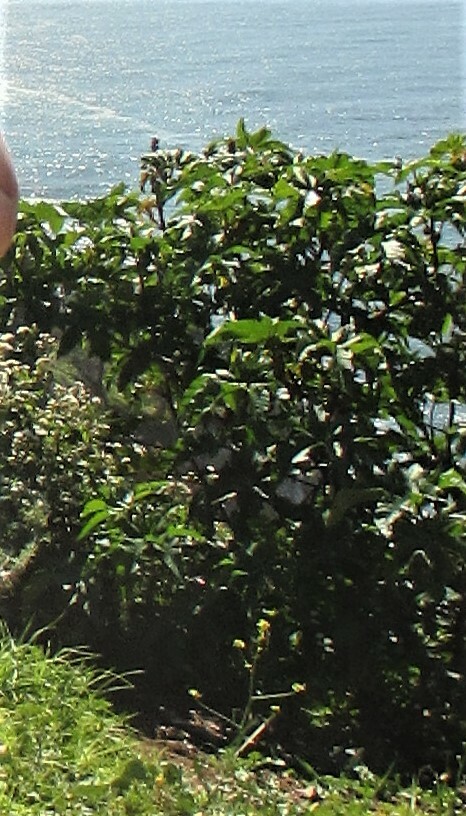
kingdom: Plantae
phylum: Tracheophyta
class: Magnoliopsida
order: Malpighiales
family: Euphorbiaceae
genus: Ricinus
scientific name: Ricinus communis
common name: Castor-oil-plant
